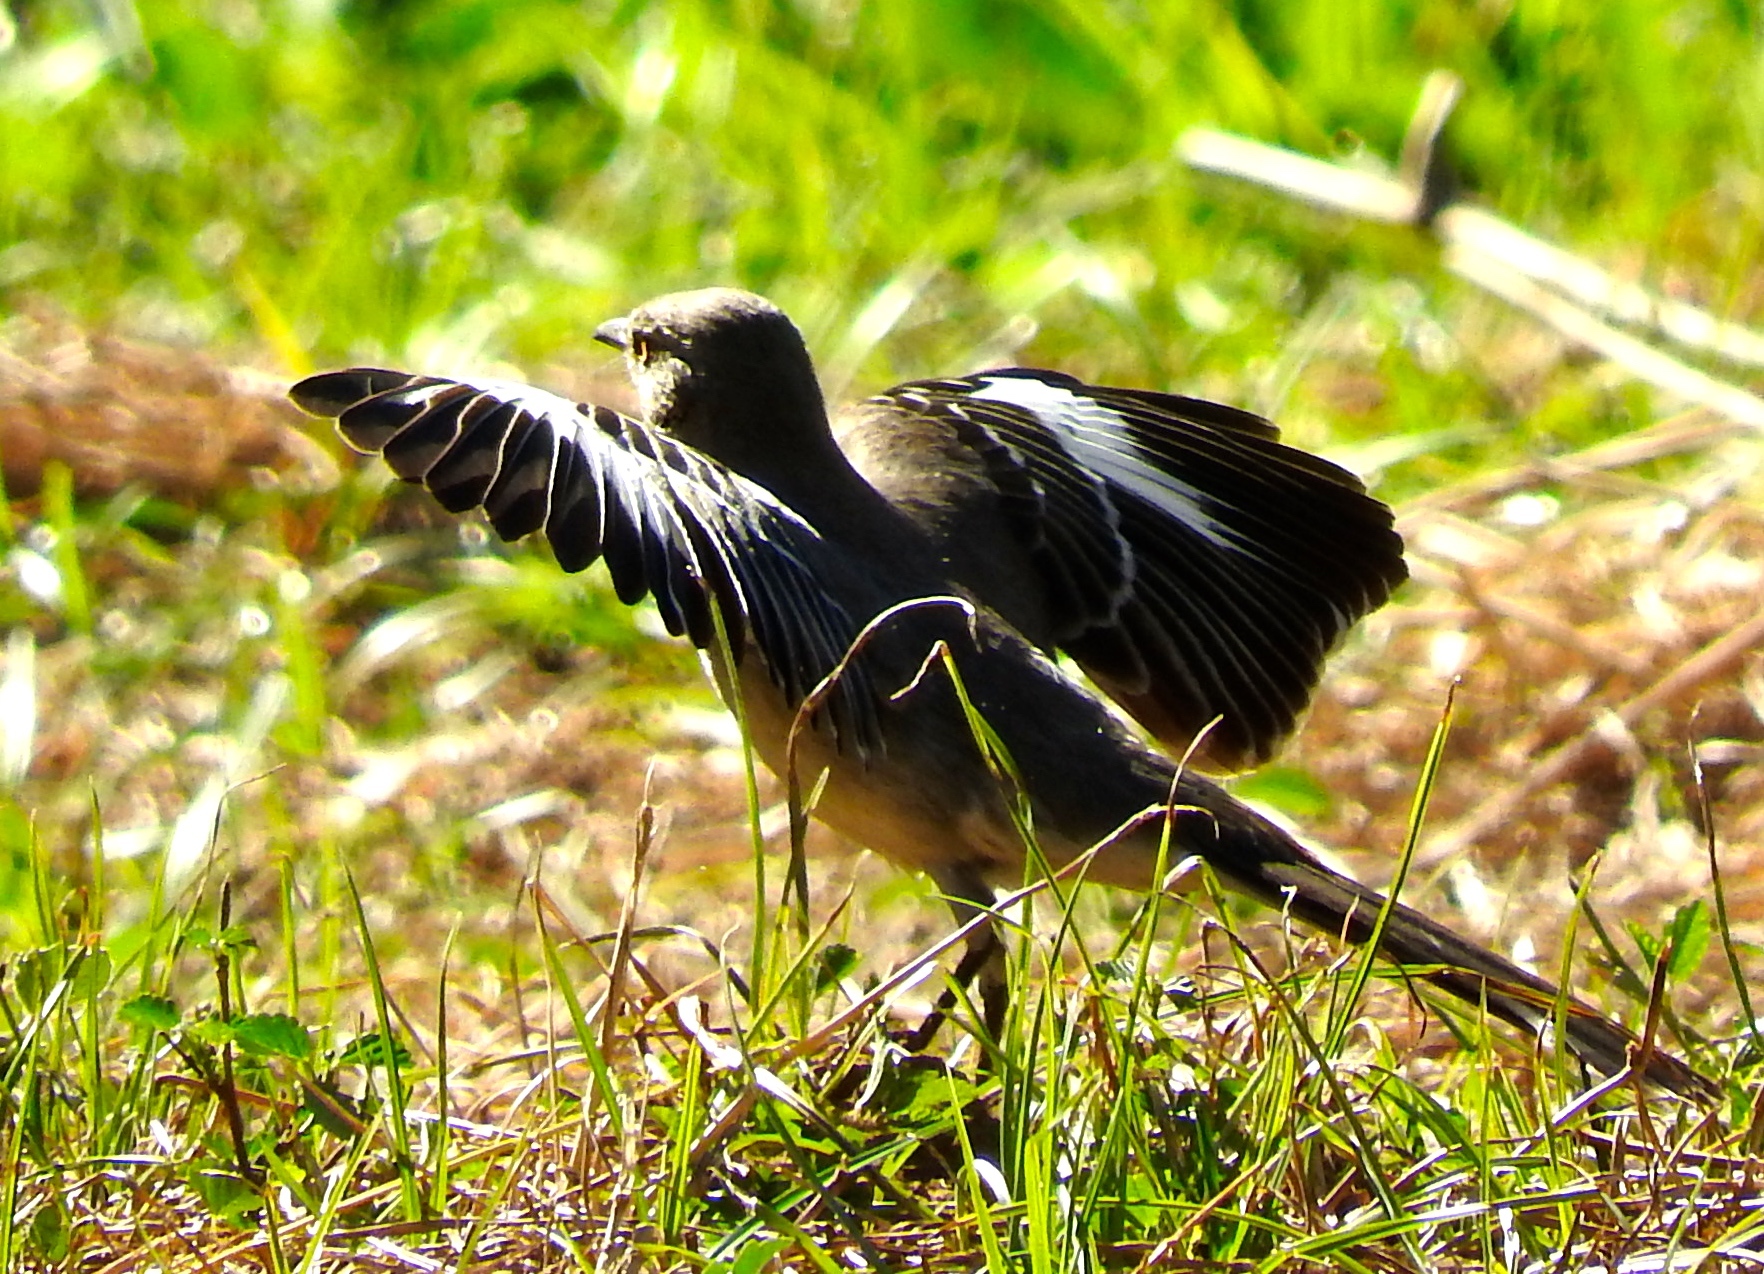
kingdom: Animalia
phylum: Chordata
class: Aves
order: Passeriformes
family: Mimidae
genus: Mimus
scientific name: Mimus polyglottos
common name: Northern mockingbird
